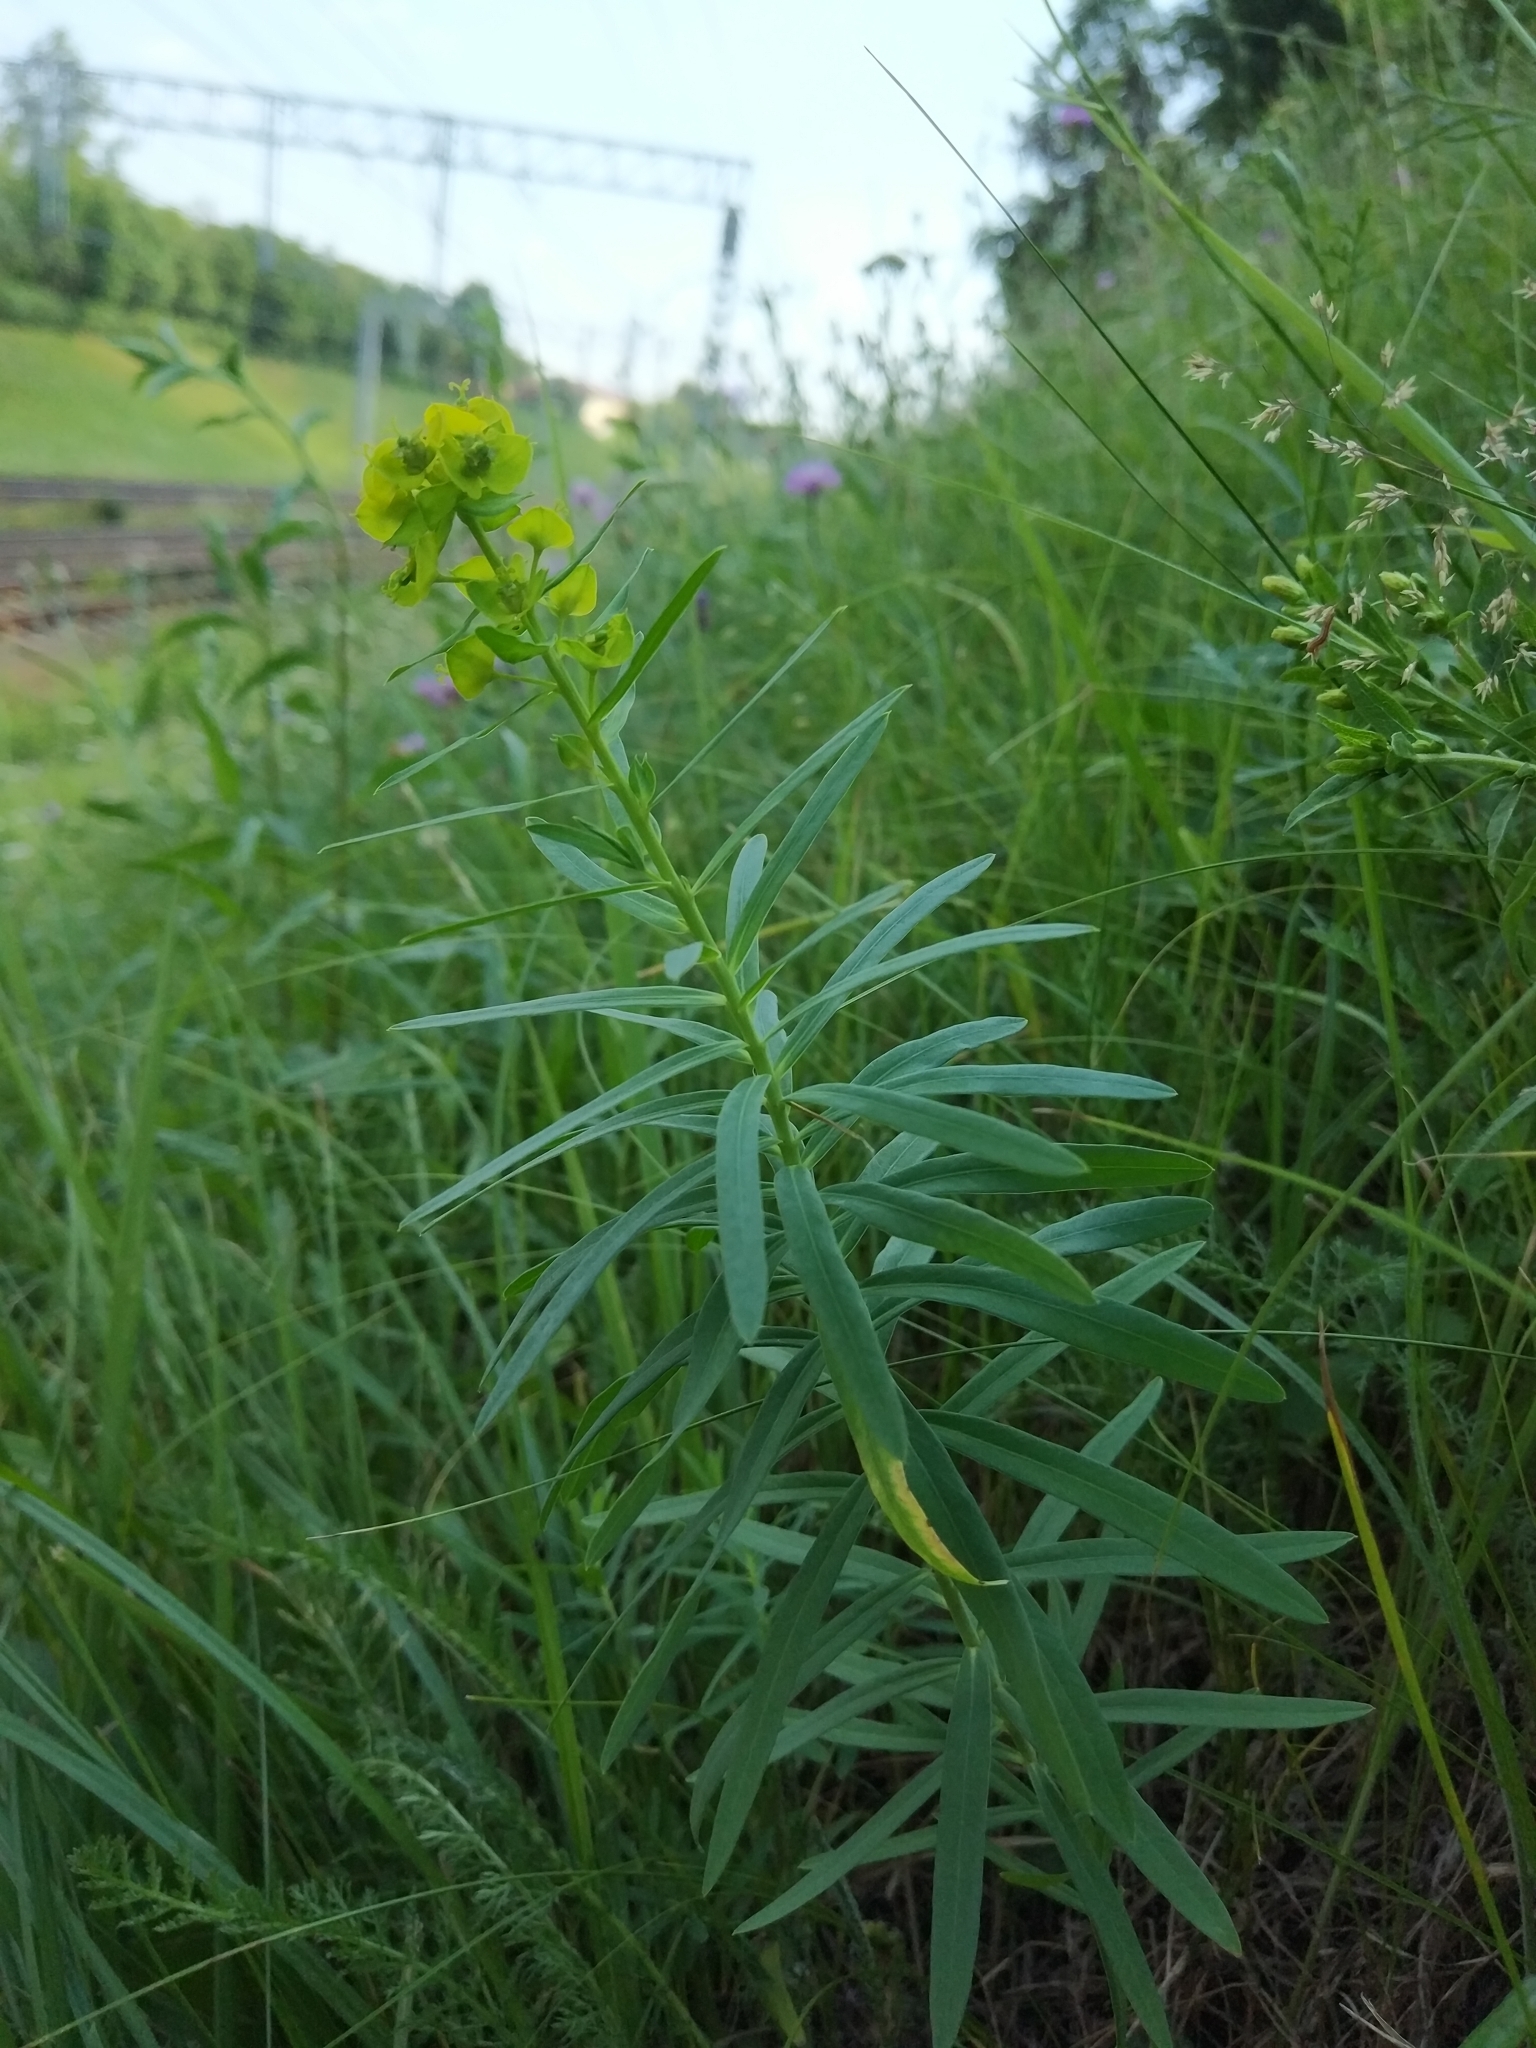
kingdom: Plantae
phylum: Tracheophyta
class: Magnoliopsida
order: Malpighiales
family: Euphorbiaceae
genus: Euphorbia
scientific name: Euphorbia virgata
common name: Leafy spurge
